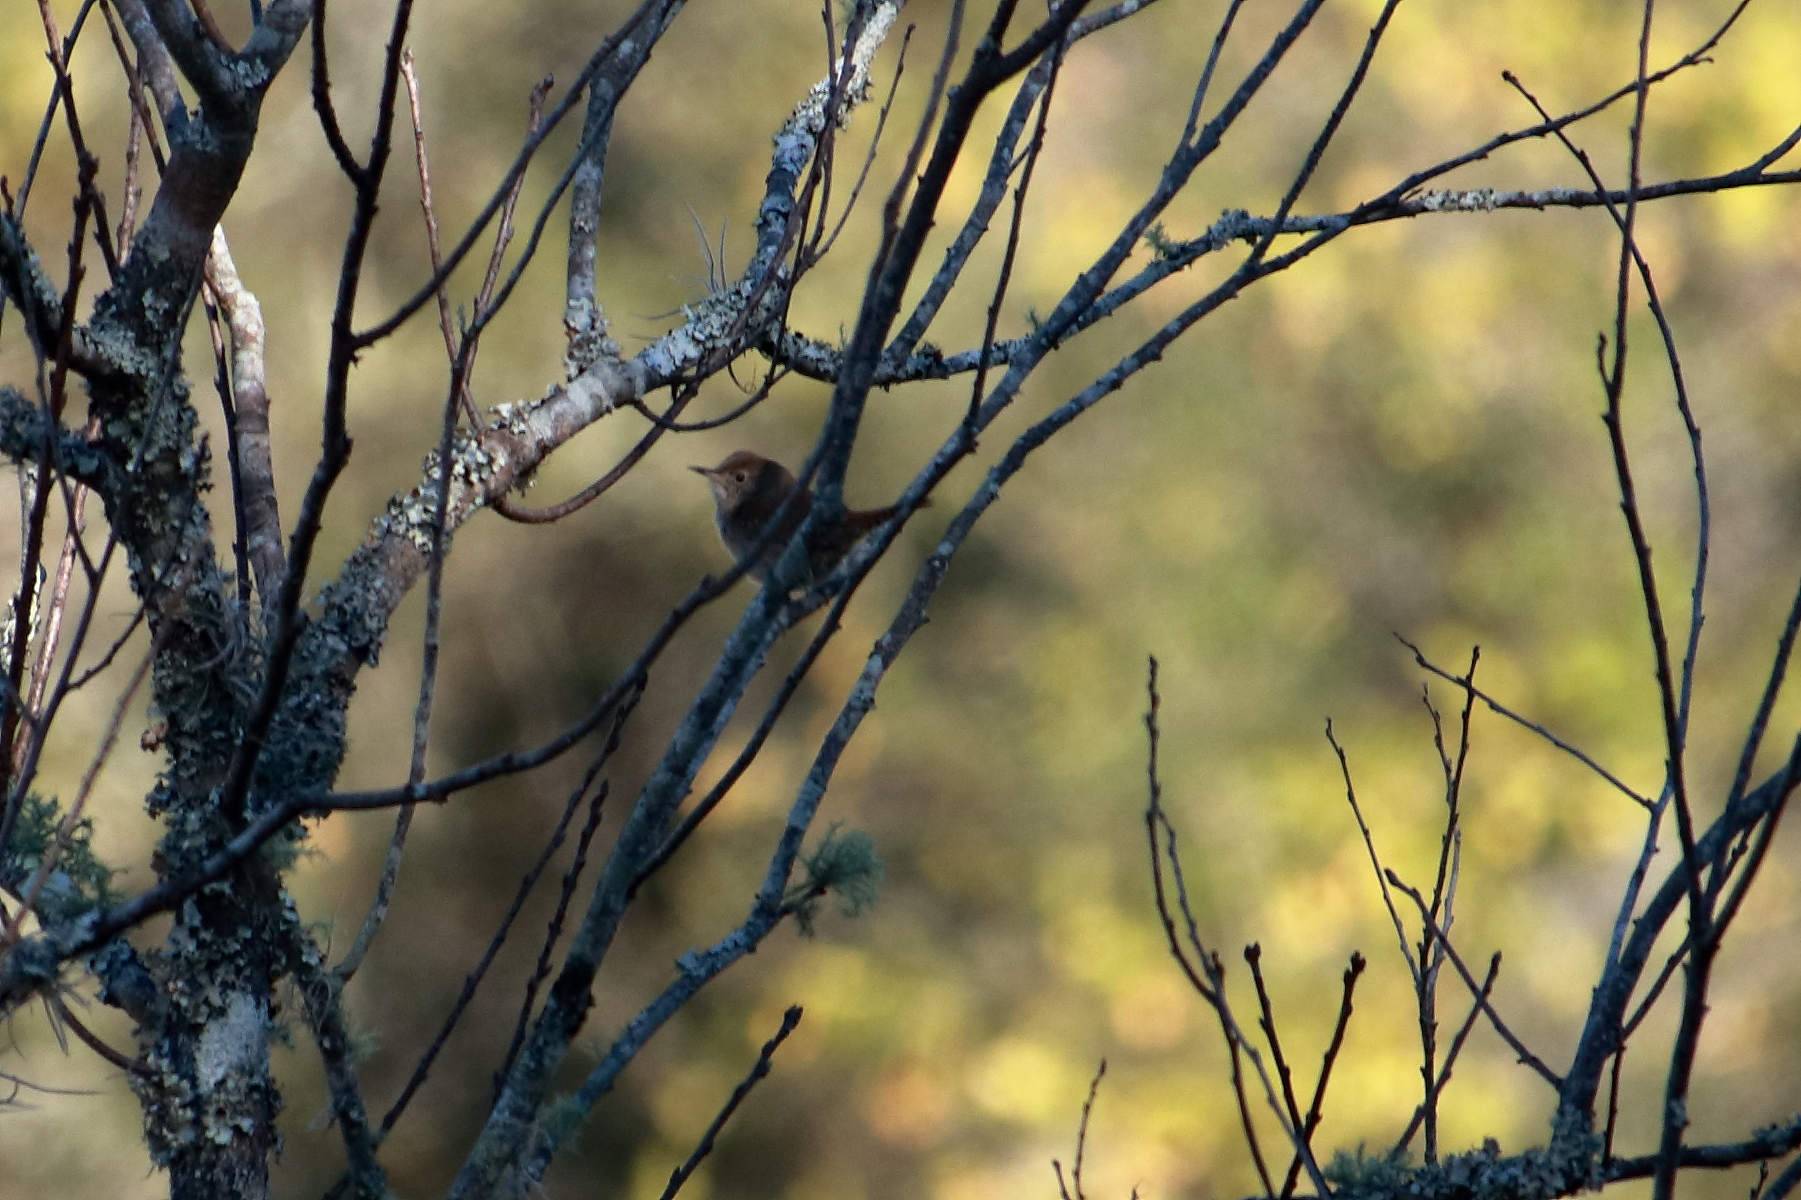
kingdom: Animalia
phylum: Chordata
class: Aves
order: Passeriformes
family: Troglodytidae
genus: Troglodytes
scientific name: Troglodytes aedon
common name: House wren
